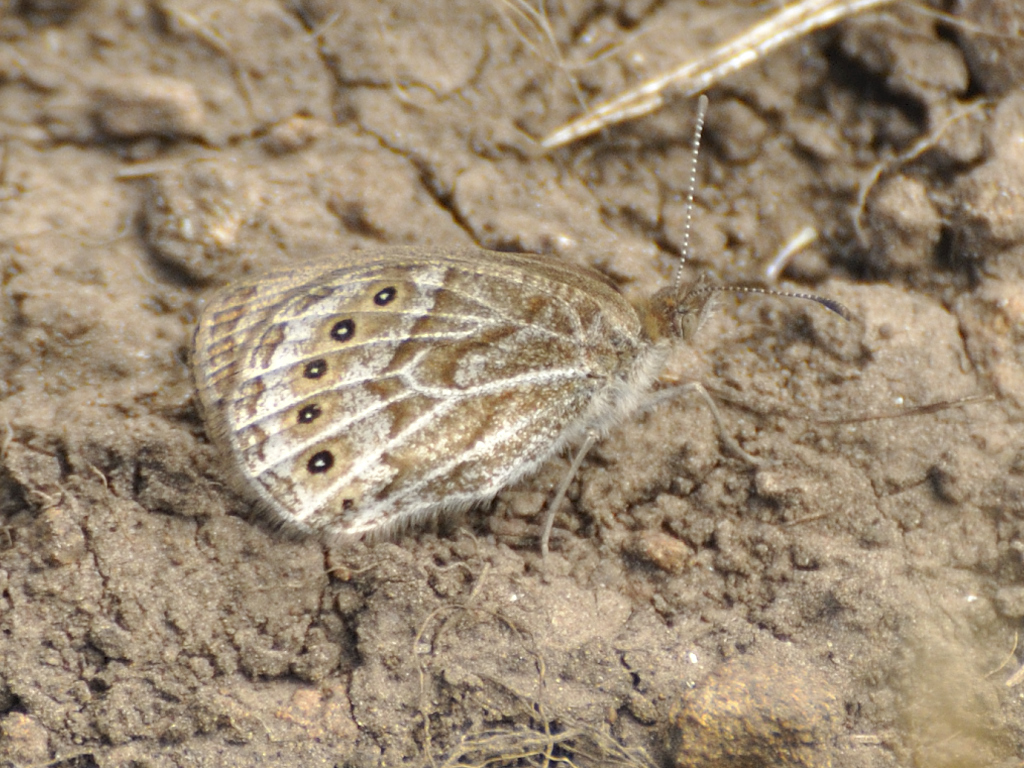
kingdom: Animalia
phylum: Arthropoda
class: Insecta
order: Lepidoptera
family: Nymphalidae
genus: Pseudonympha
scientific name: Pseudonympha machacha
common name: Machacha brown
